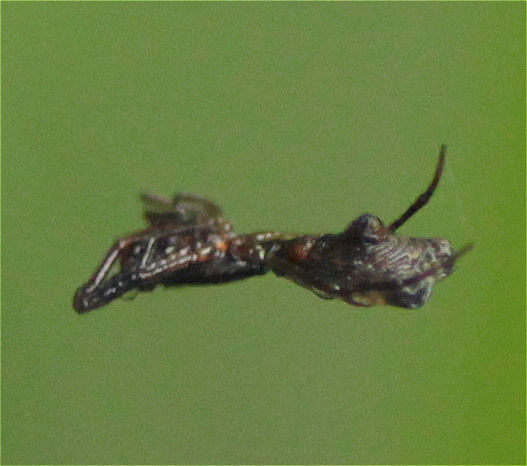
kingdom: Animalia
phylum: Arthropoda
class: Arachnida
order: Araneae
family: Araneidae
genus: Micrathena
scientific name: Micrathena sexspinosa
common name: Orb weavers
